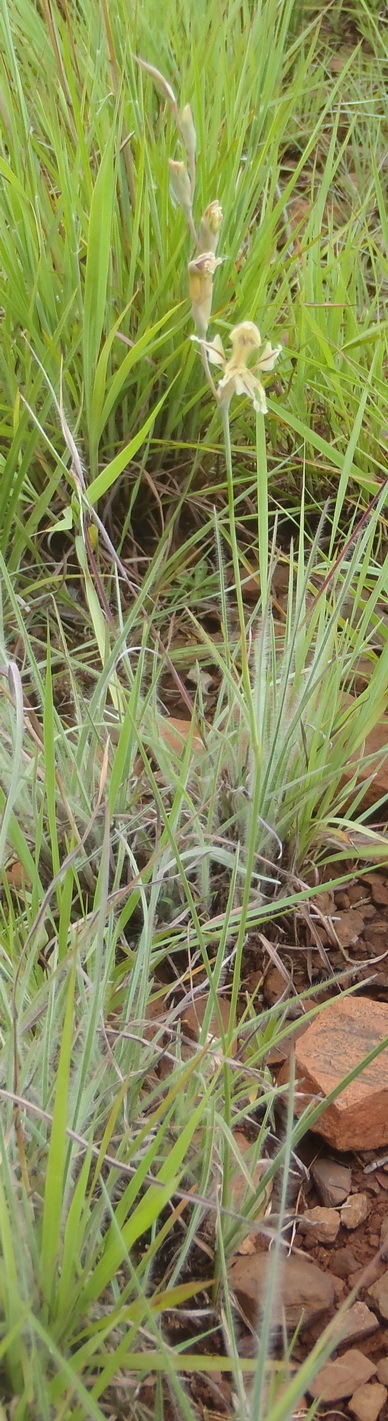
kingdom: Plantae
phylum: Tracheophyta
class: Liliopsida
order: Asparagales
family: Iridaceae
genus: Gladiolus
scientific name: Gladiolus permeabilis
